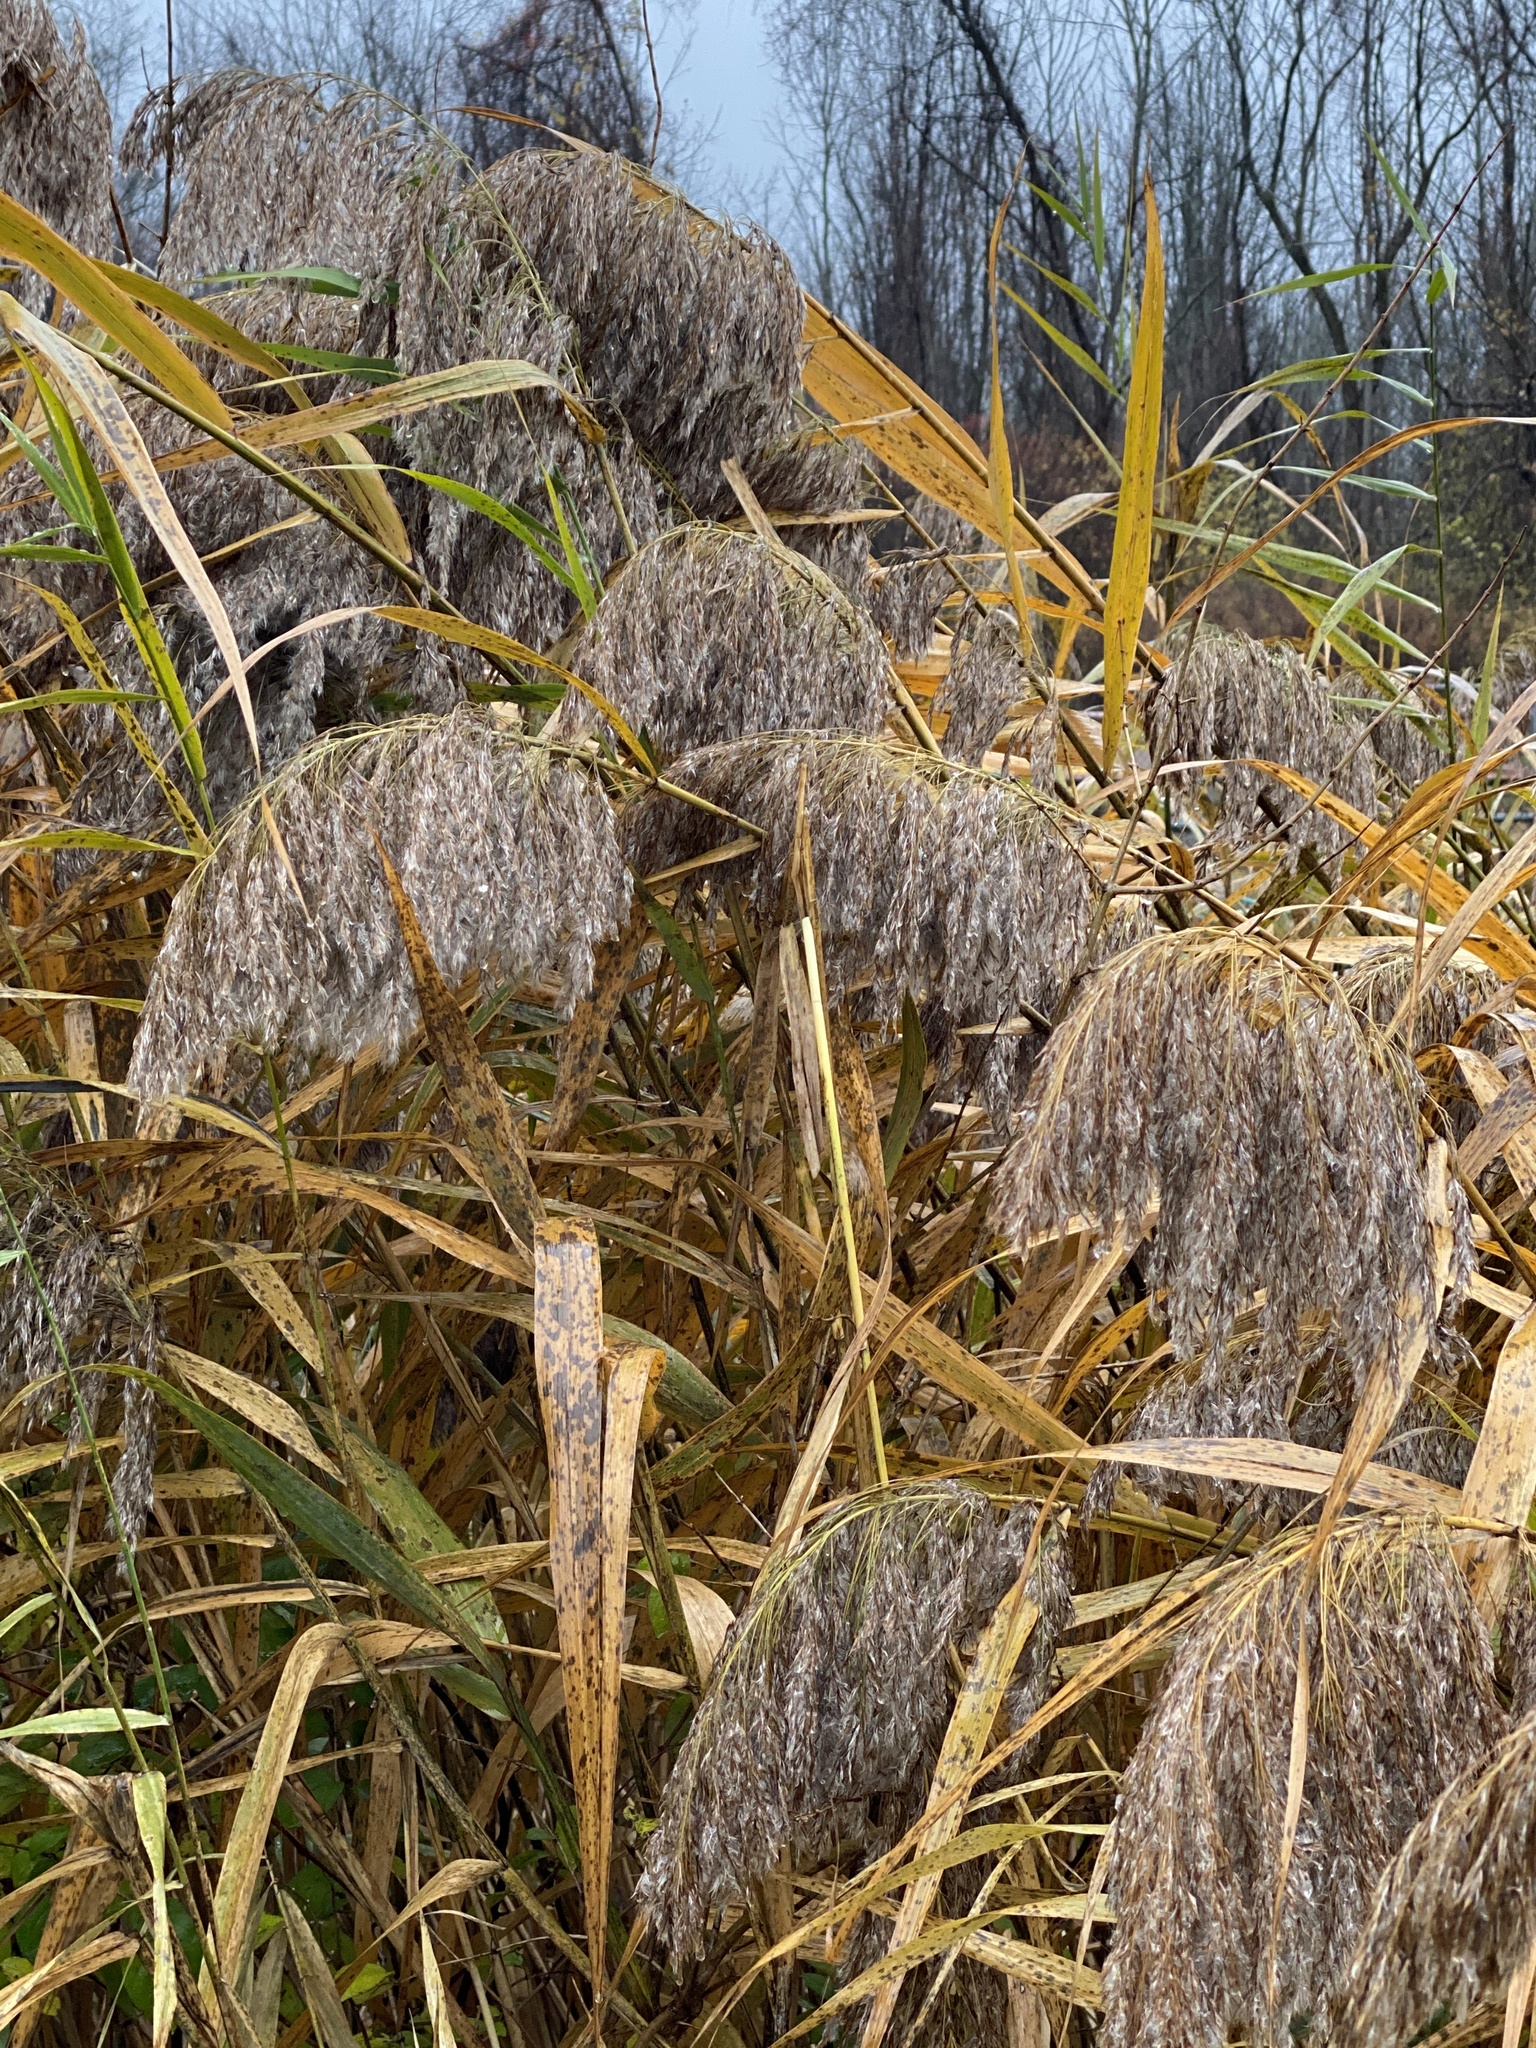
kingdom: Plantae
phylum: Tracheophyta
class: Liliopsida
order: Poales
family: Poaceae
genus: Phragmites
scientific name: Phragmites australis
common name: Common reed
